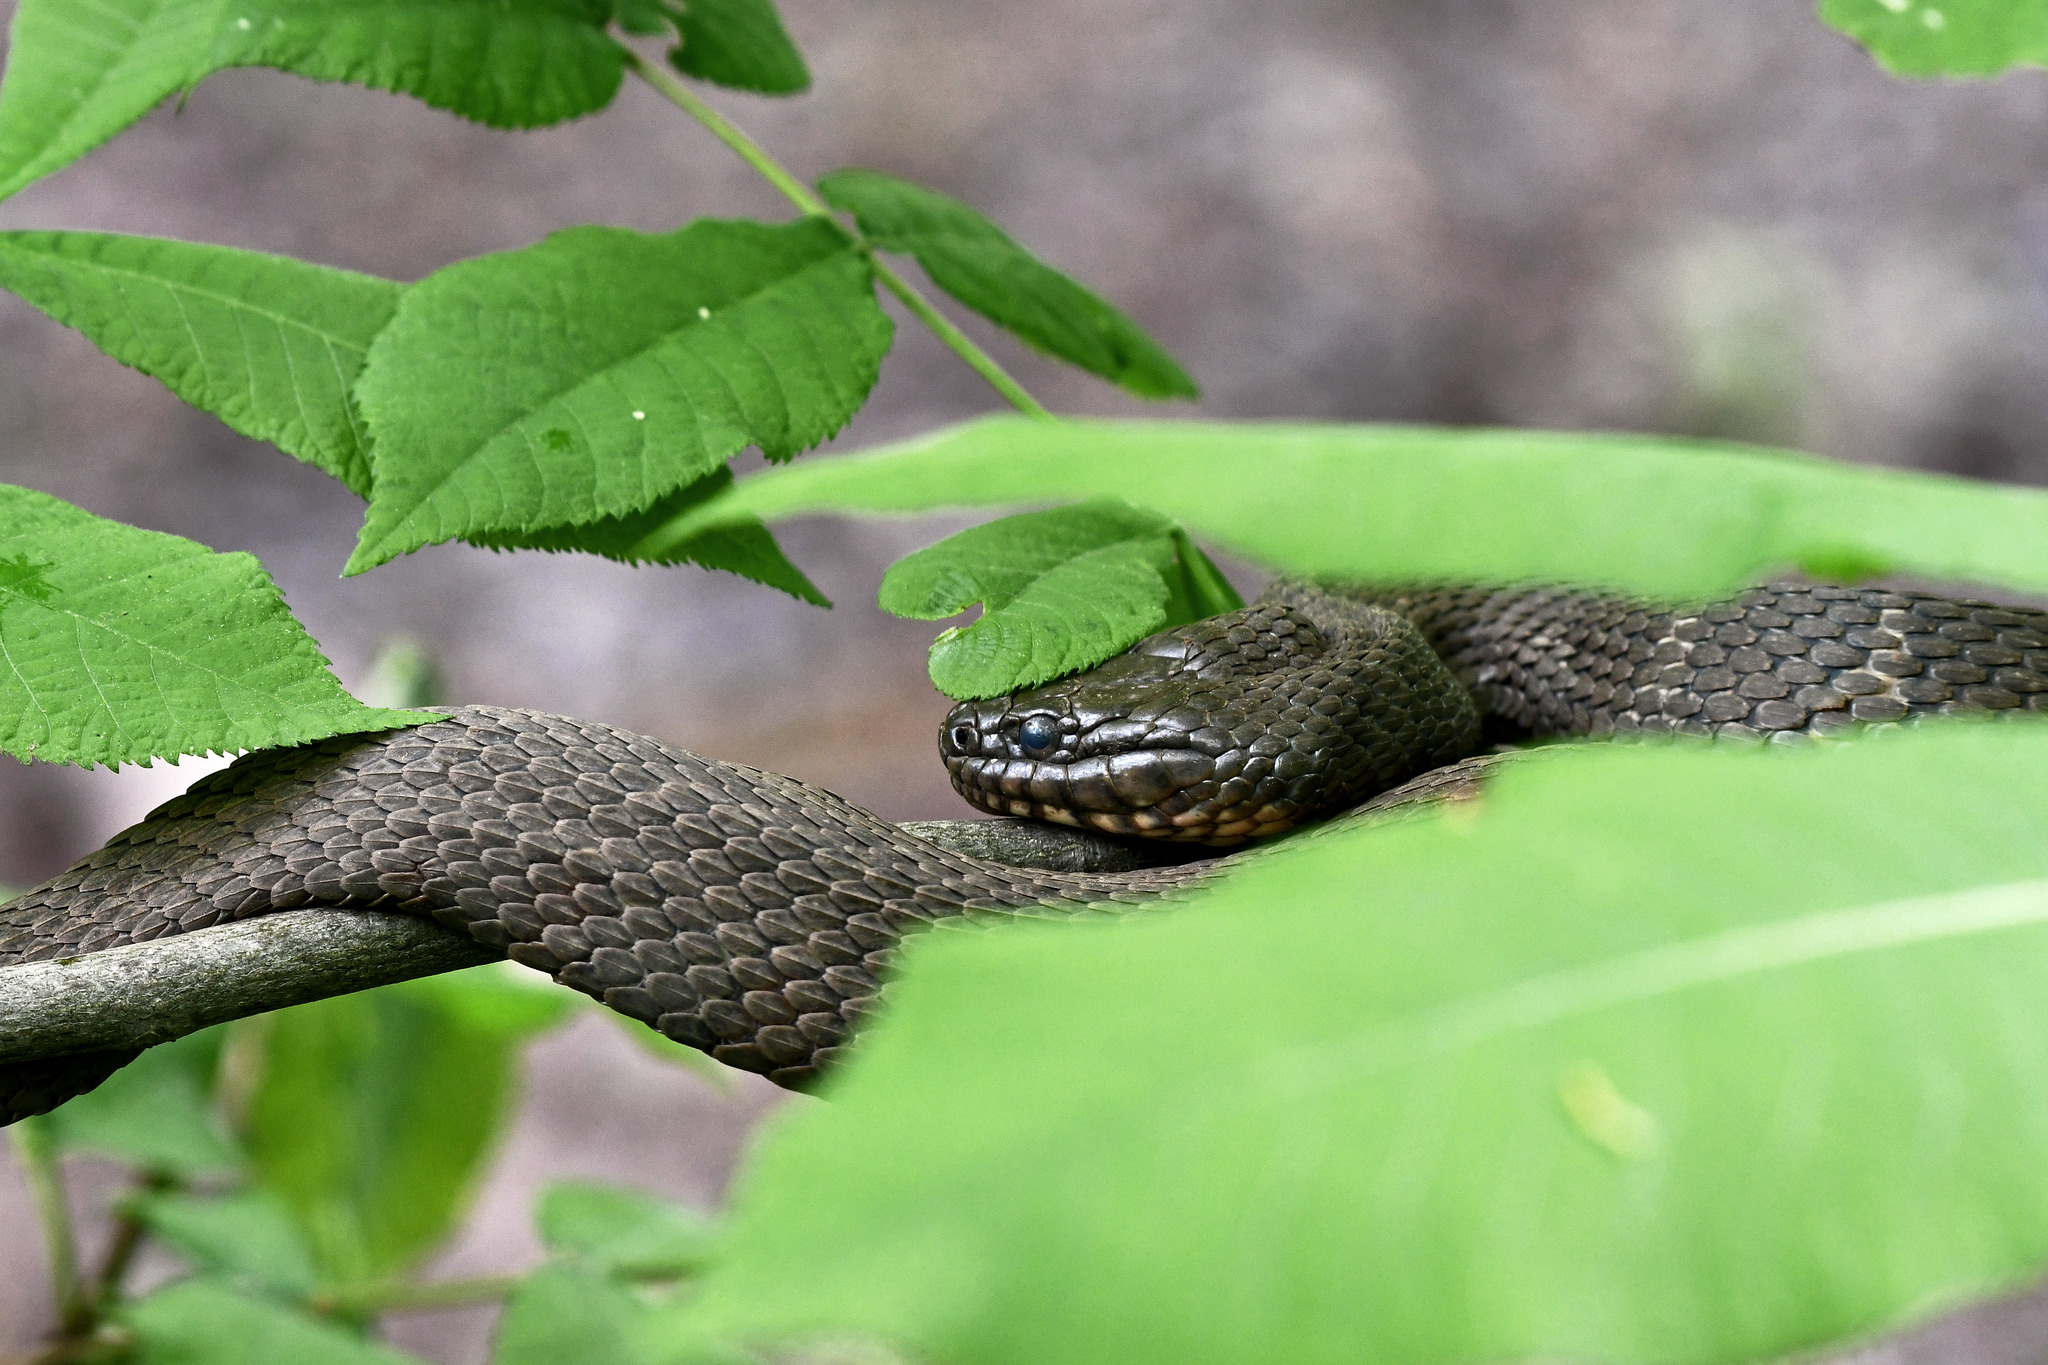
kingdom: Animalia
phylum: Chordata
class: Squamata
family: Colubridae
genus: Nerodia
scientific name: Nerodia sipedon
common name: Northern water snake
